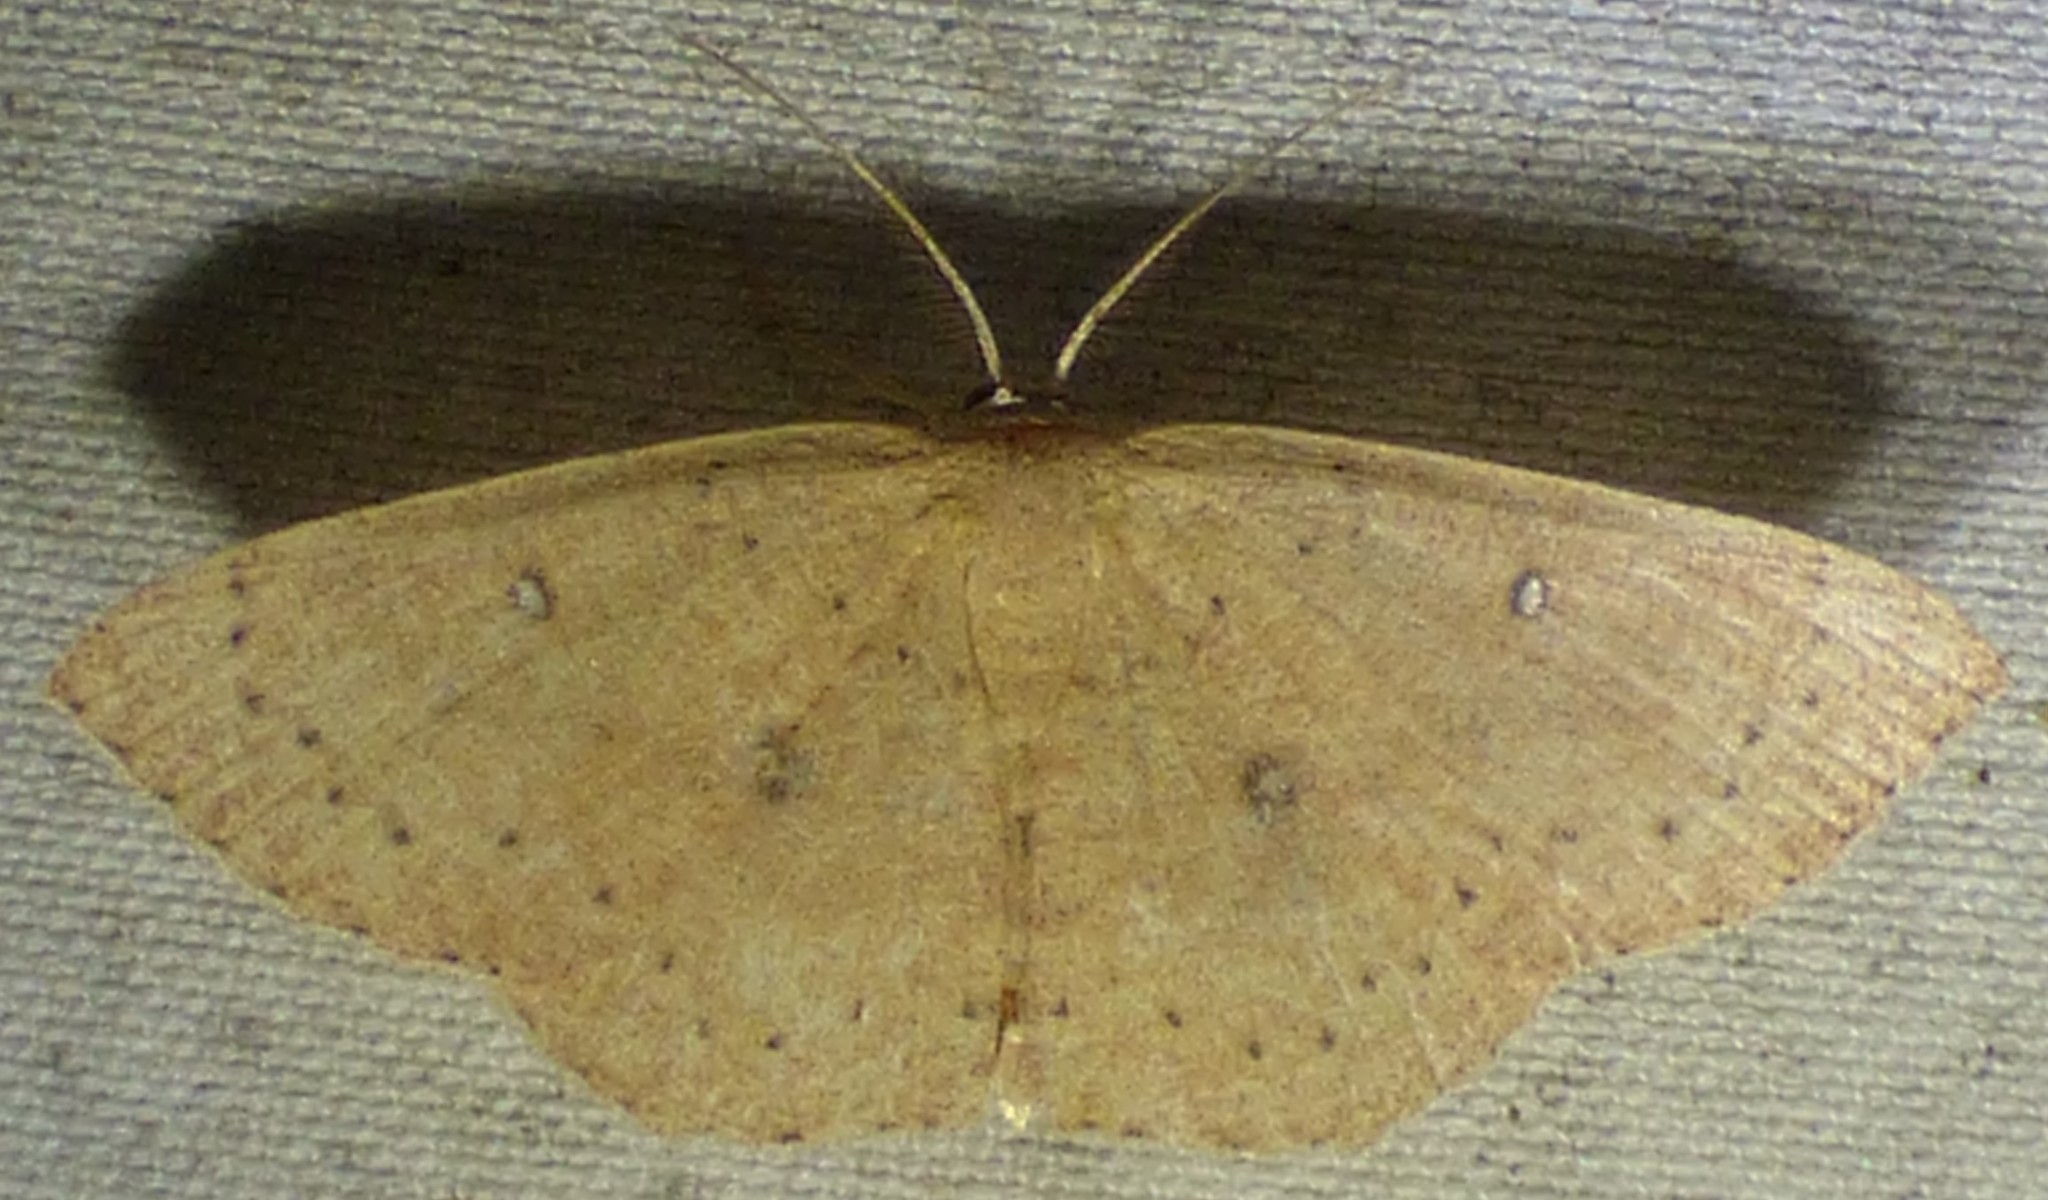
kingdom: Animalia
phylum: Arthropoda
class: Insecta
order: Lepidoptera
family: Geometridae
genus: Cyclophora
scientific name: Cyclophora packardi
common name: Packard's wave
